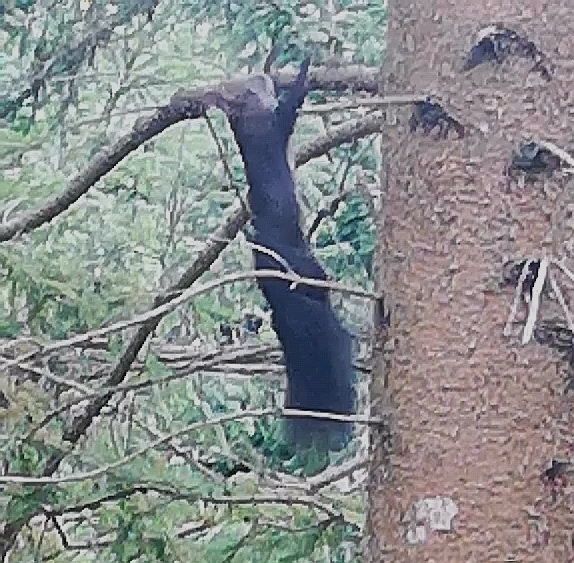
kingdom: Animalia
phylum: Chordata
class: Mammalia
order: Rodentia
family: Sciuridae
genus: Sciurus
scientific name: Sciurus vulgaris
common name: Eurasian red squirrel
